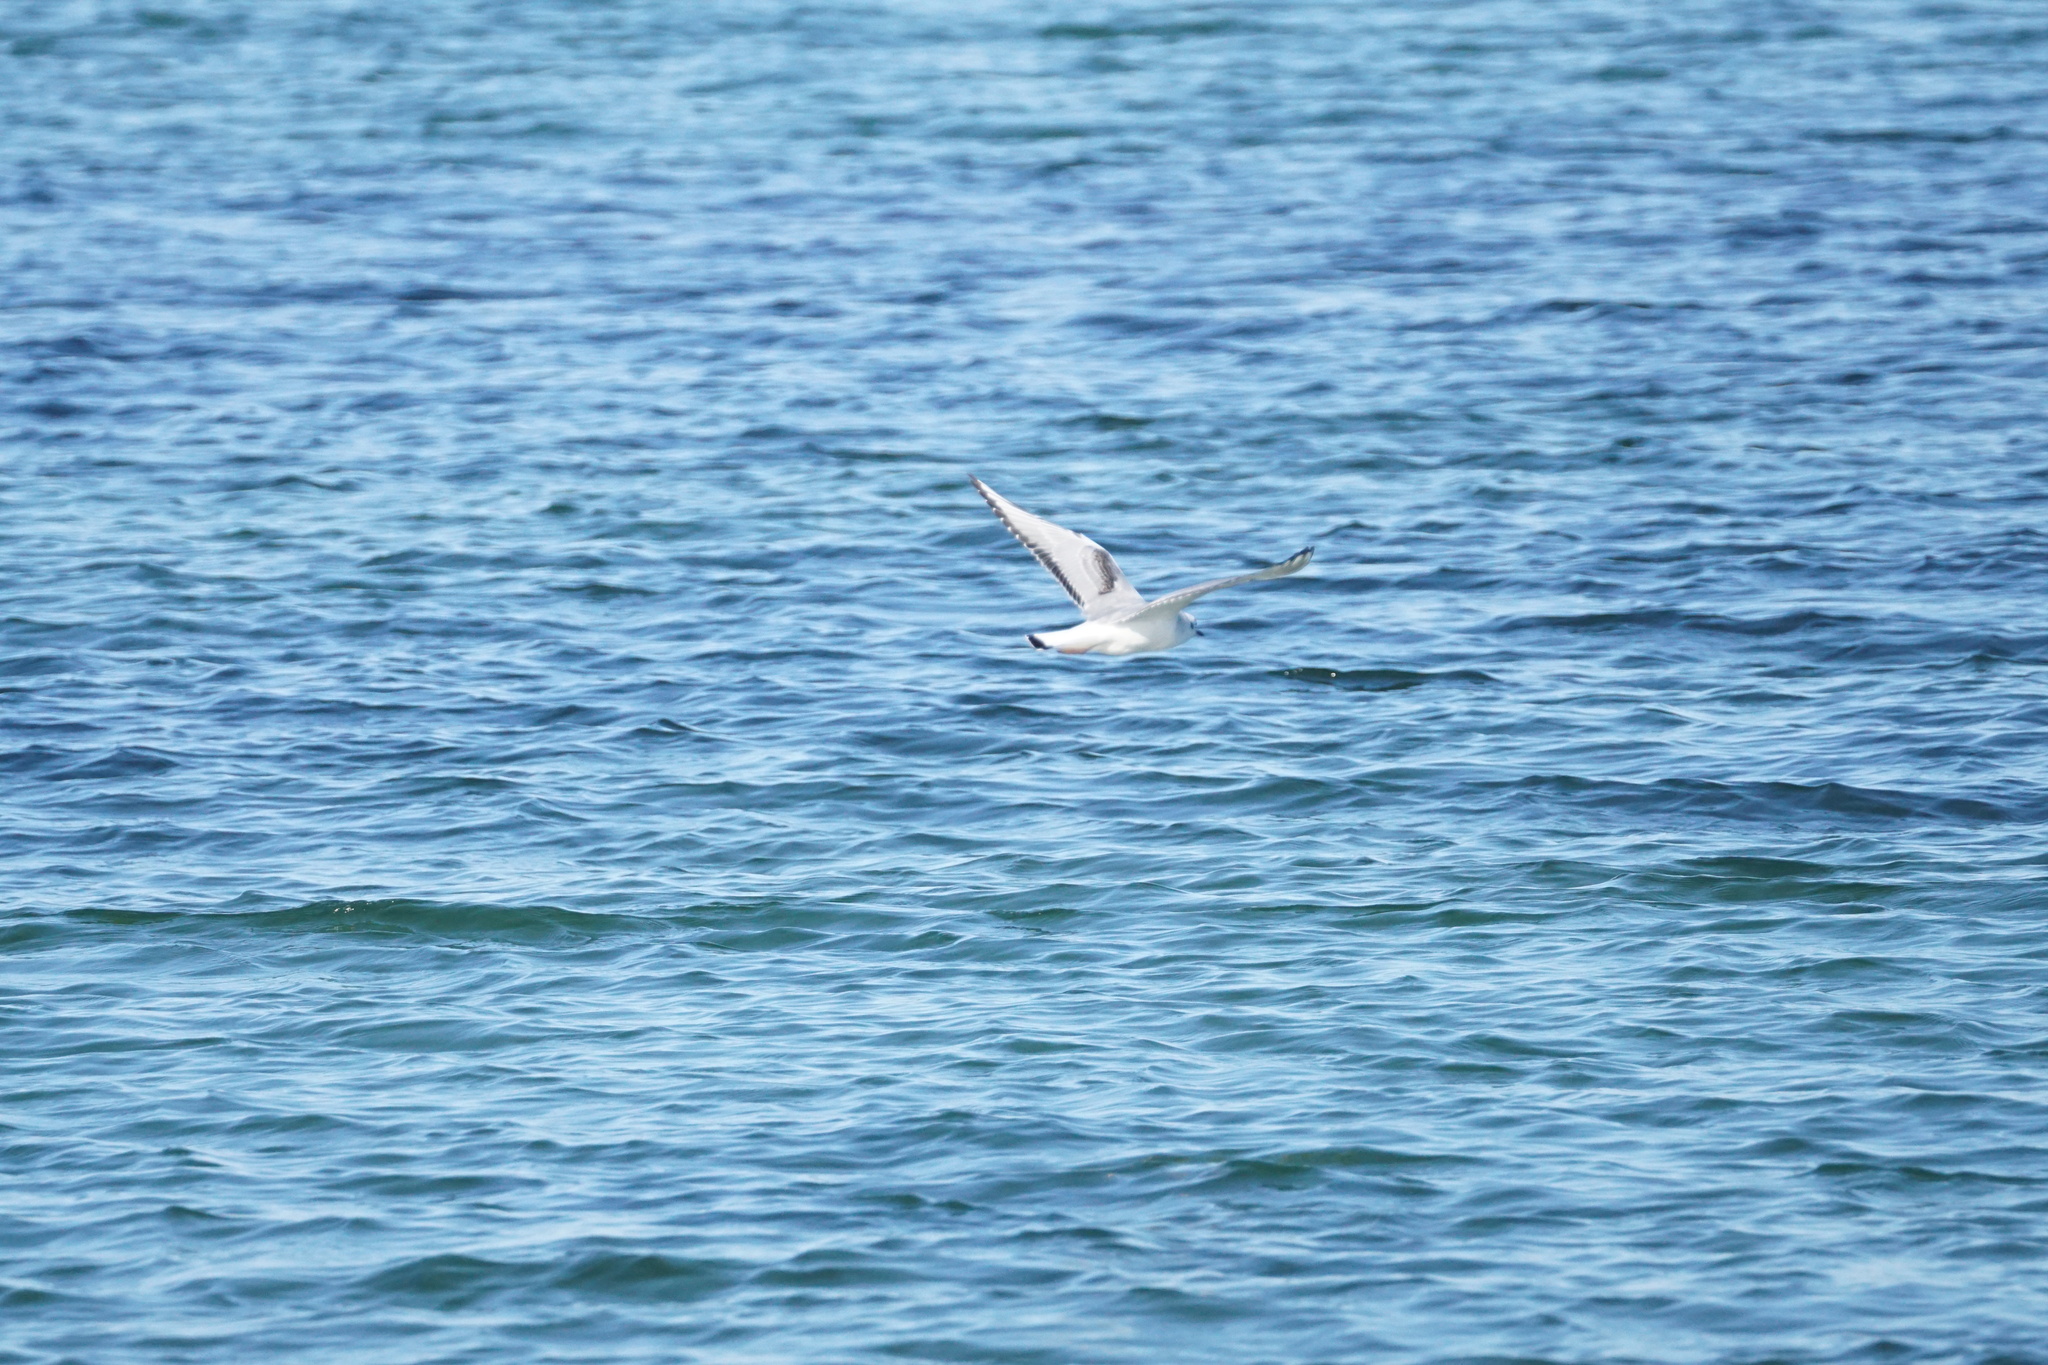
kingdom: Animalia
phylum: Chordata
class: Aves
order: Charadriiformes
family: Laridae
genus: Chroicocephalus
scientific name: Chroicocephalus philadelphia
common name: Bonaparte's gull
